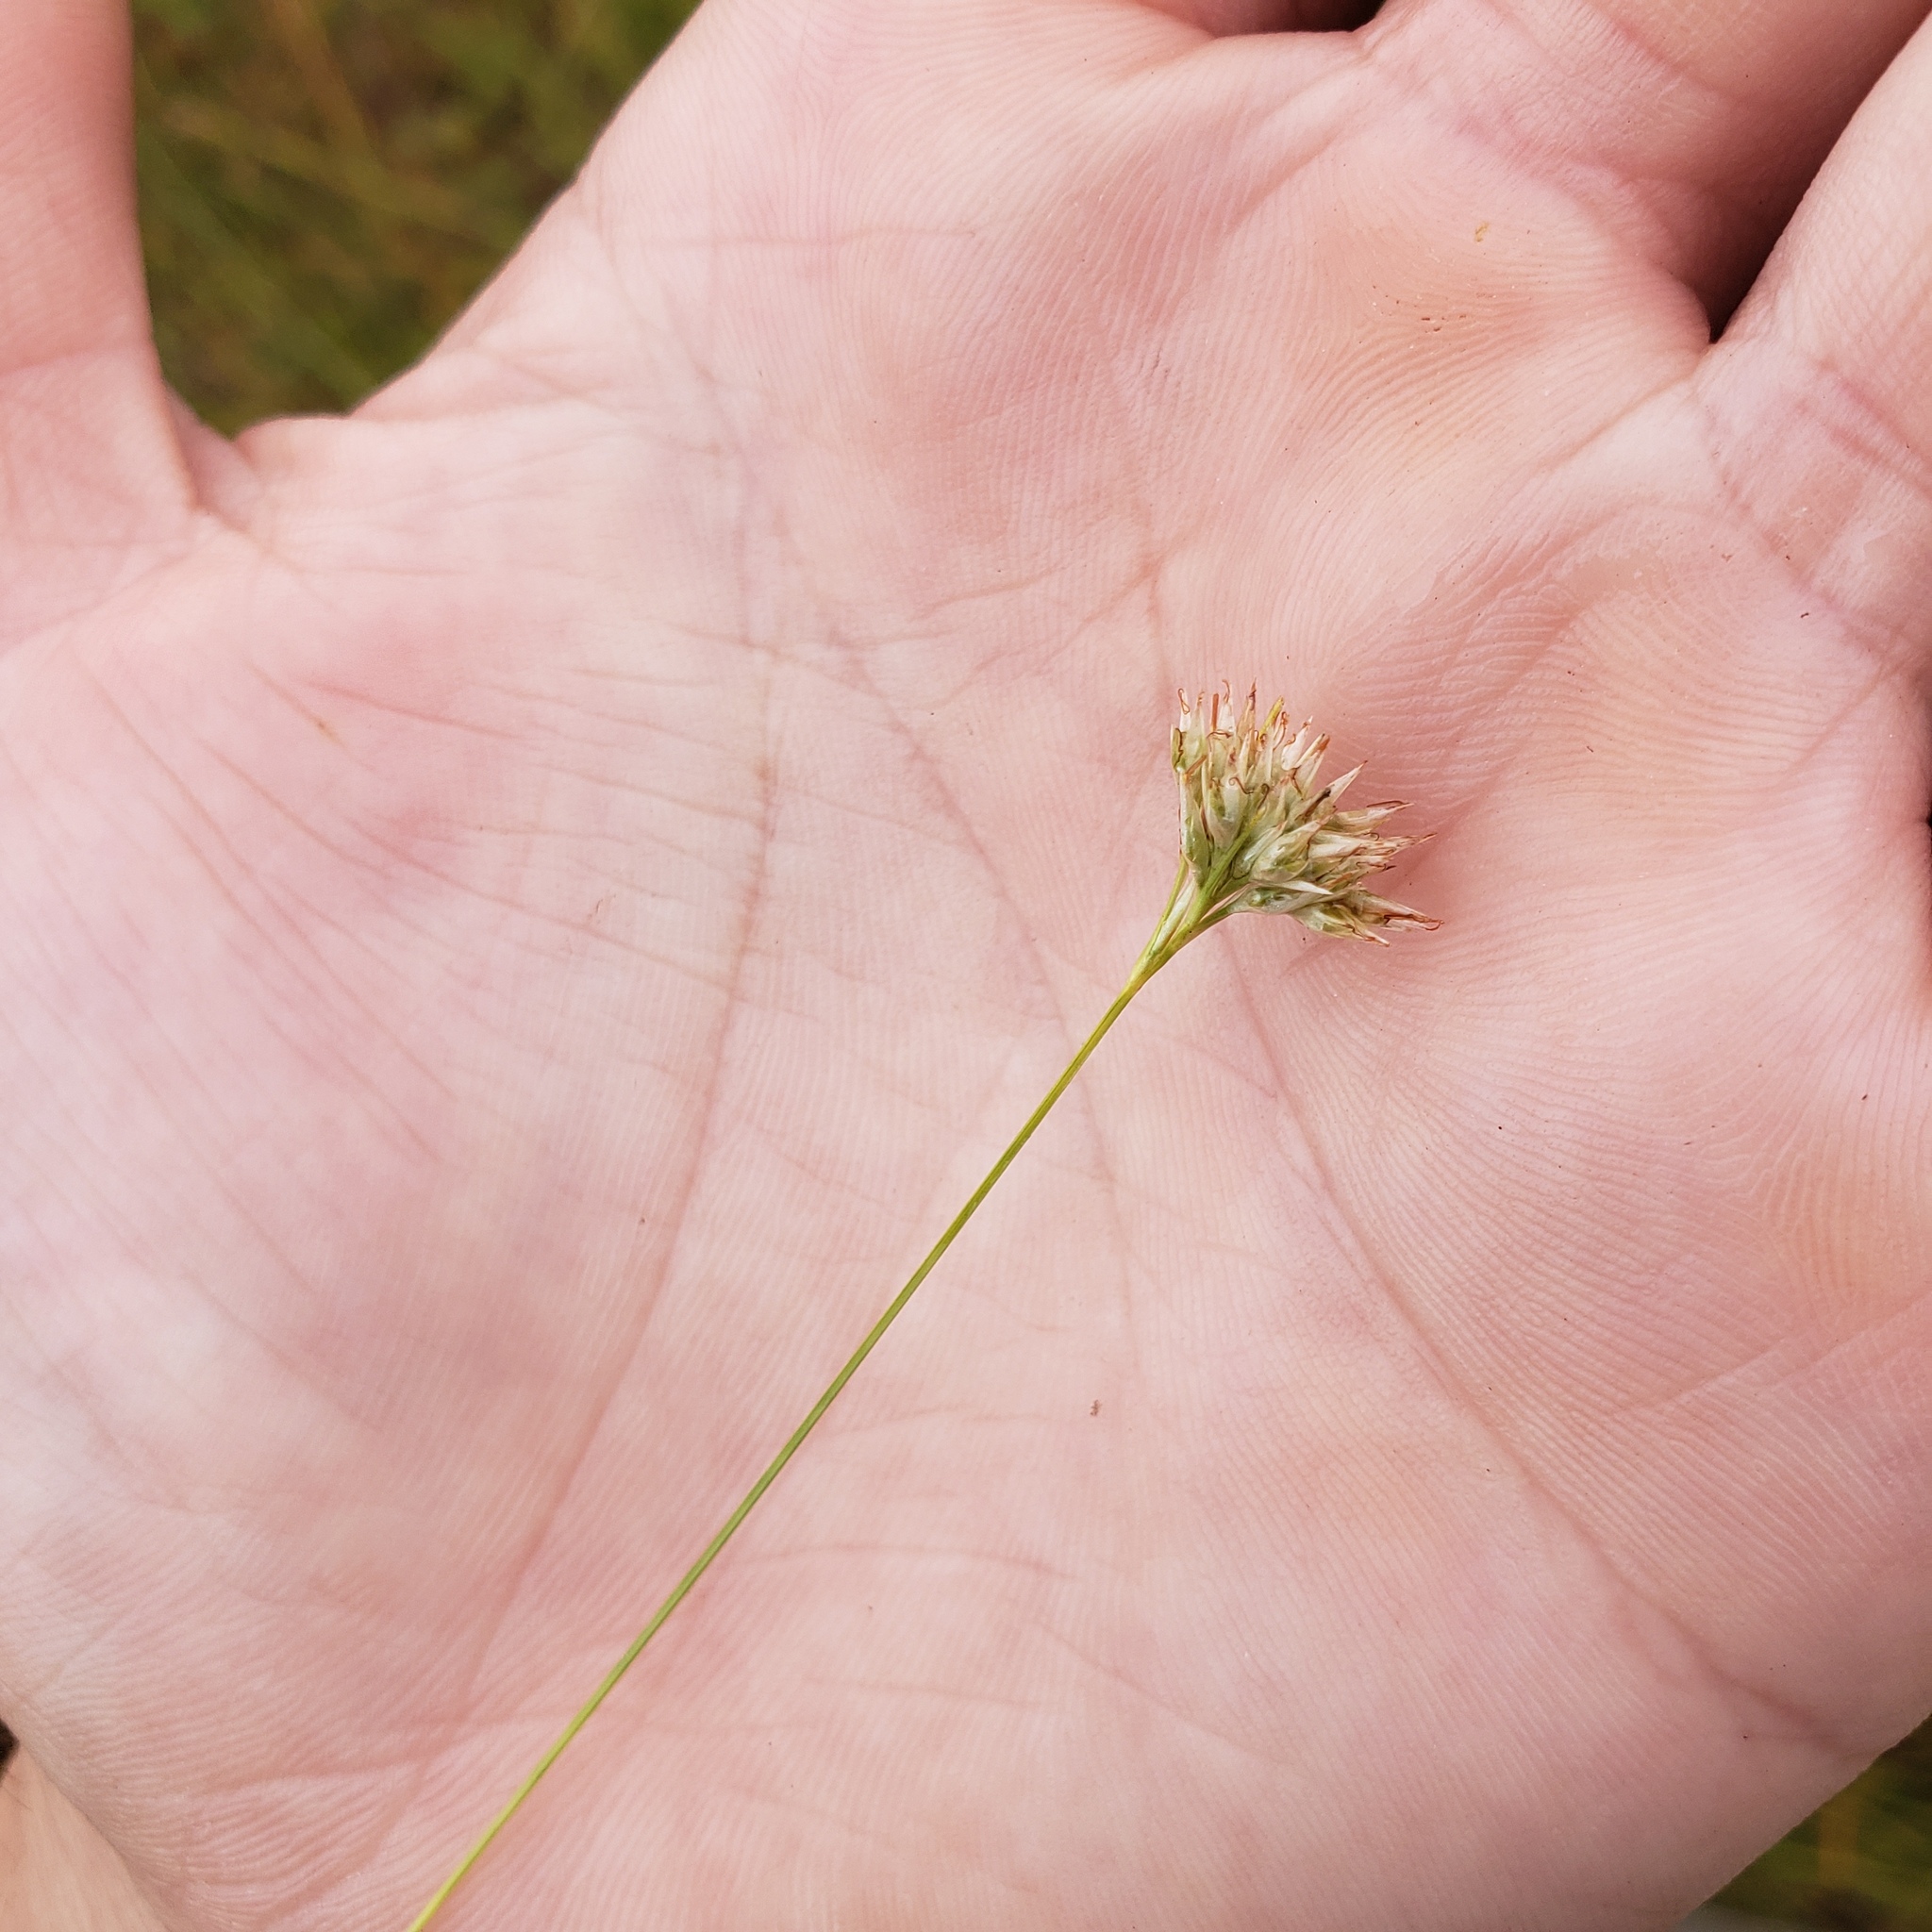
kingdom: Plantae
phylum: Tracheophyta
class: Liliopsida
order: Poales
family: Cyperaceae
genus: Rhynchospora
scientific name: Rhynchospora alba
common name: White beak-sedge
